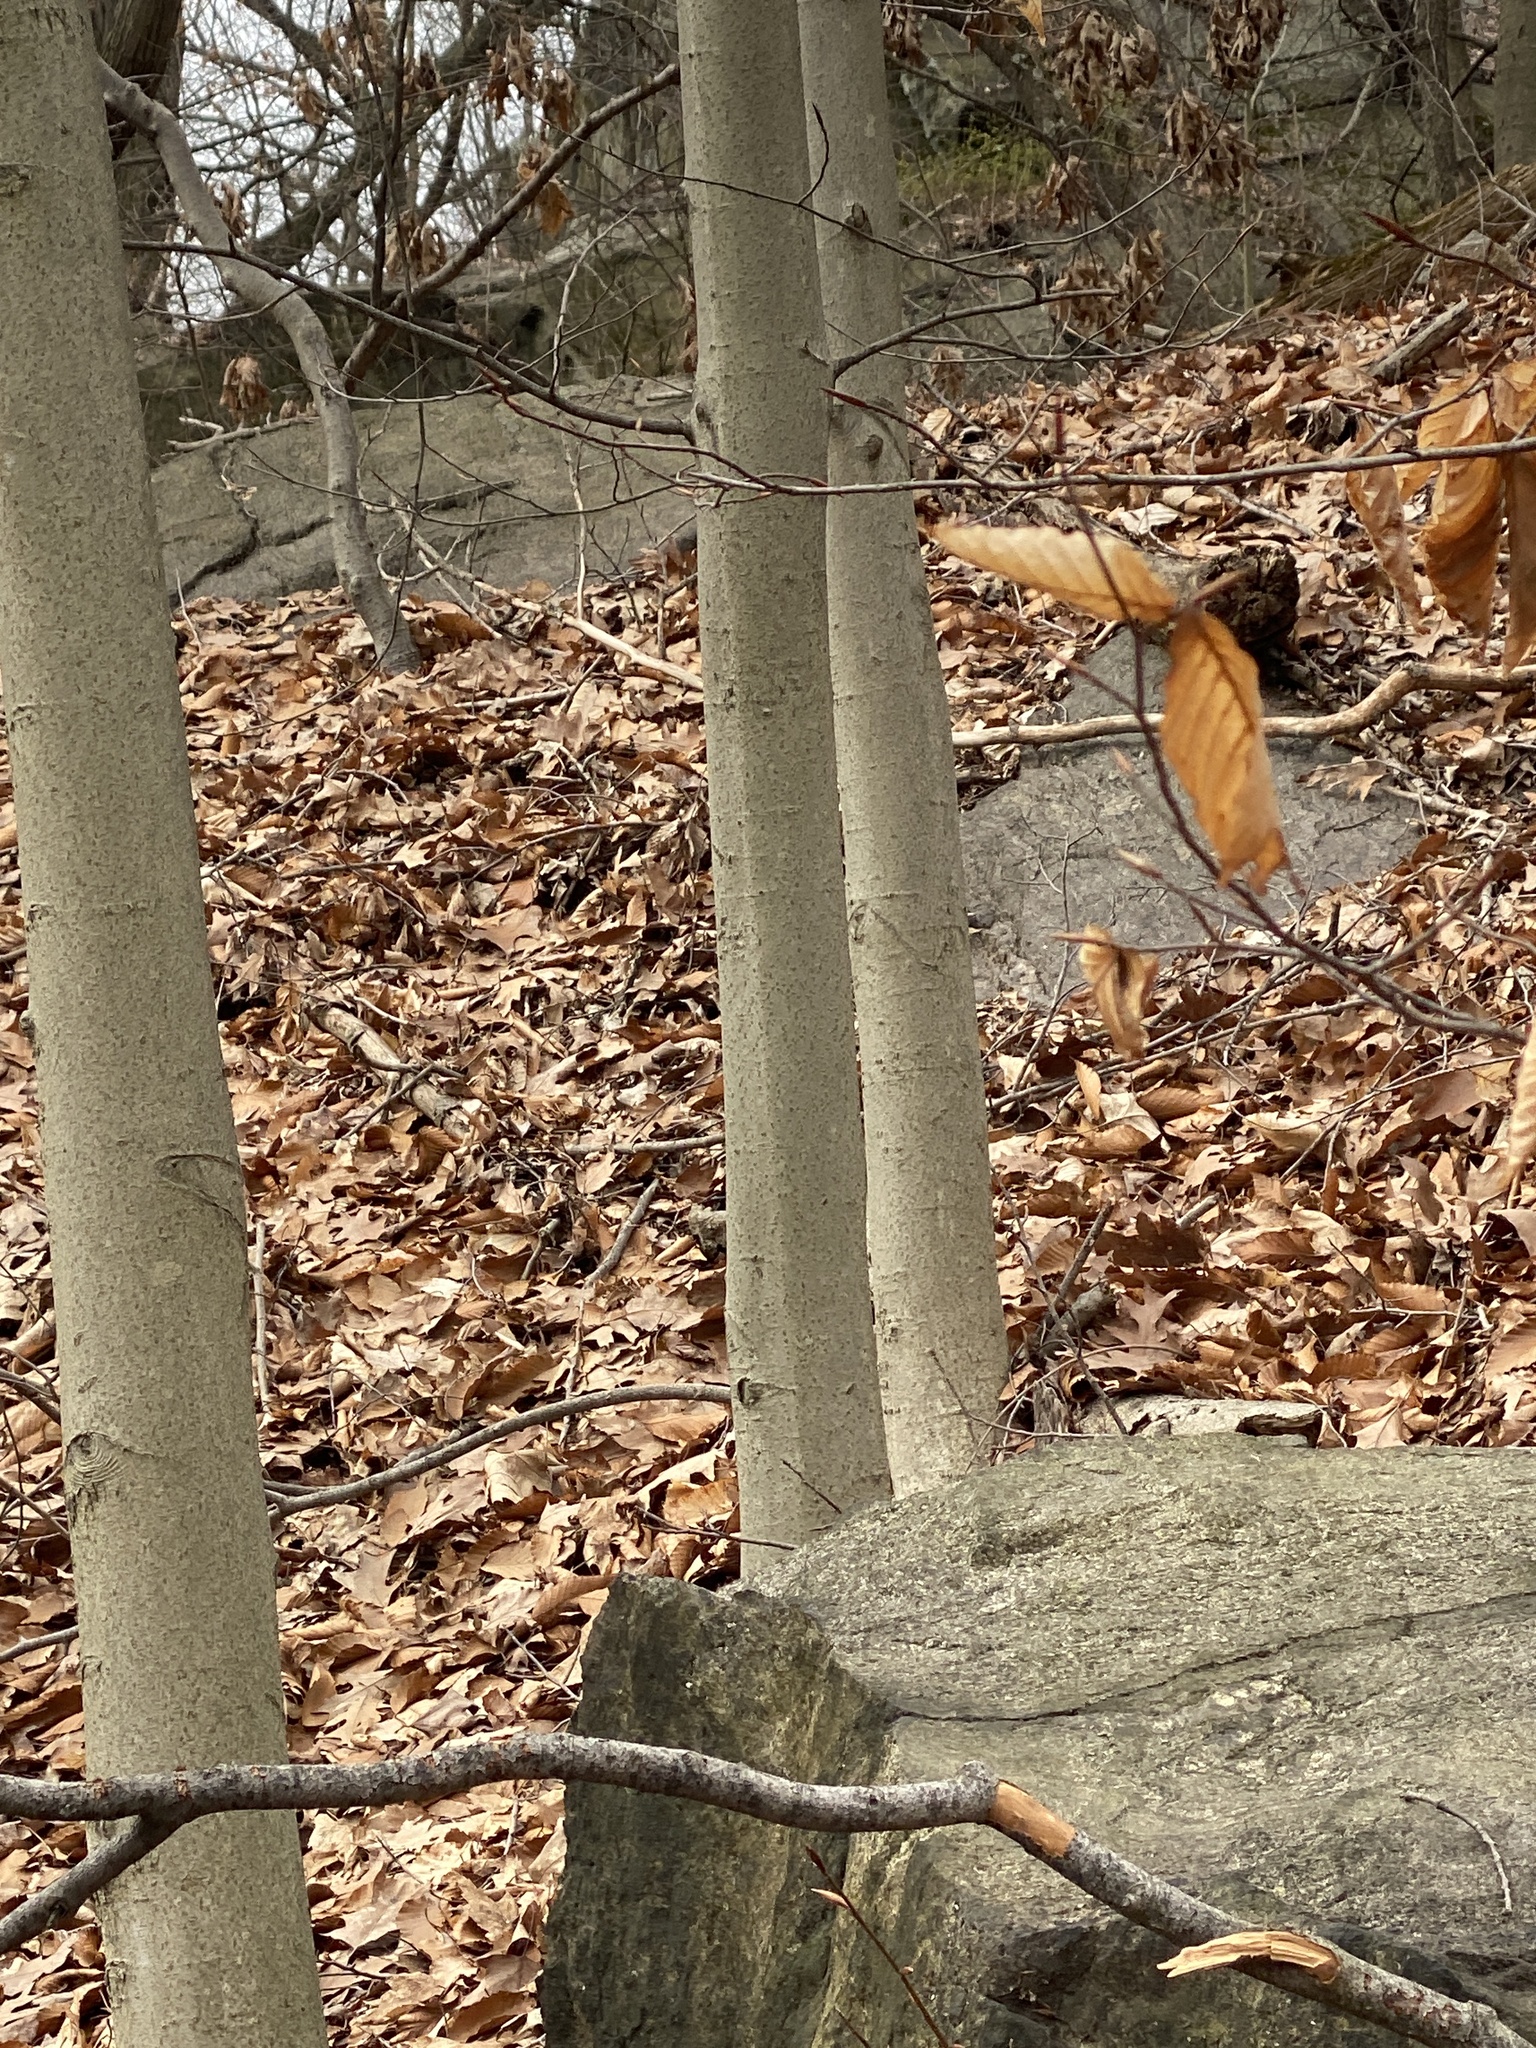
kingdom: Plantae
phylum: Tracheophyta
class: Magnoliopsida
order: Fagales
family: Fagaceae
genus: Fagus
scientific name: Fagus grandifolia
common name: American beech
